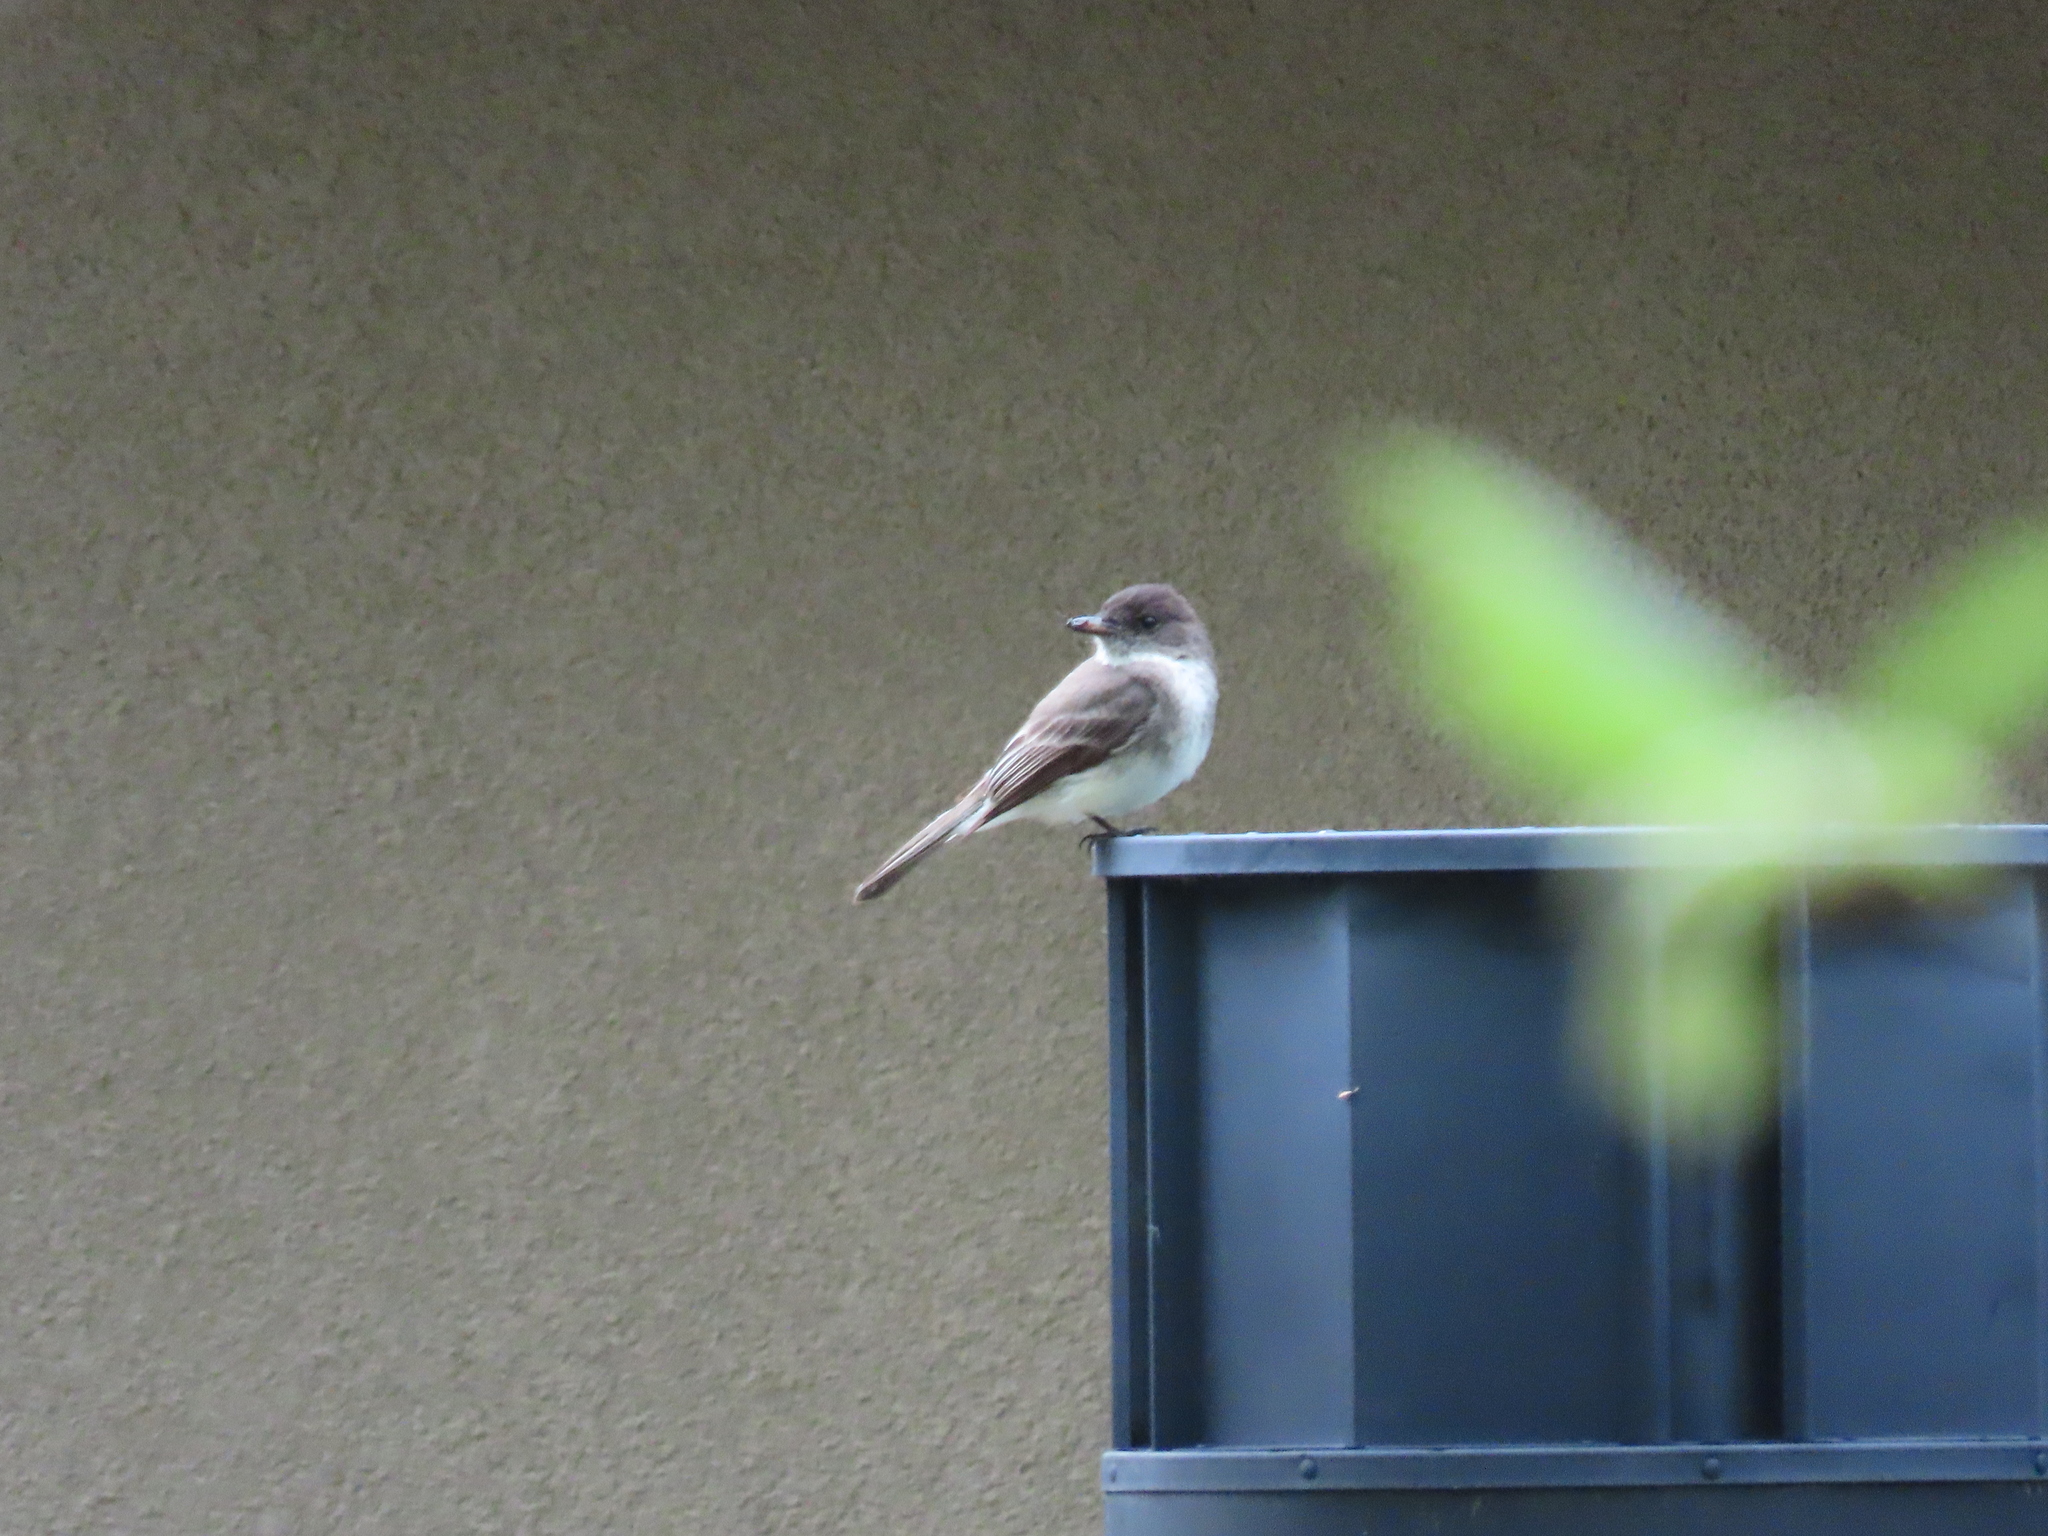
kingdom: Animalia
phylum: Chordata
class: Aves
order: Passeriformes
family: Tyrannidae
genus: Sayornis
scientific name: Sayornis phoebe
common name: Eastern phoebe
